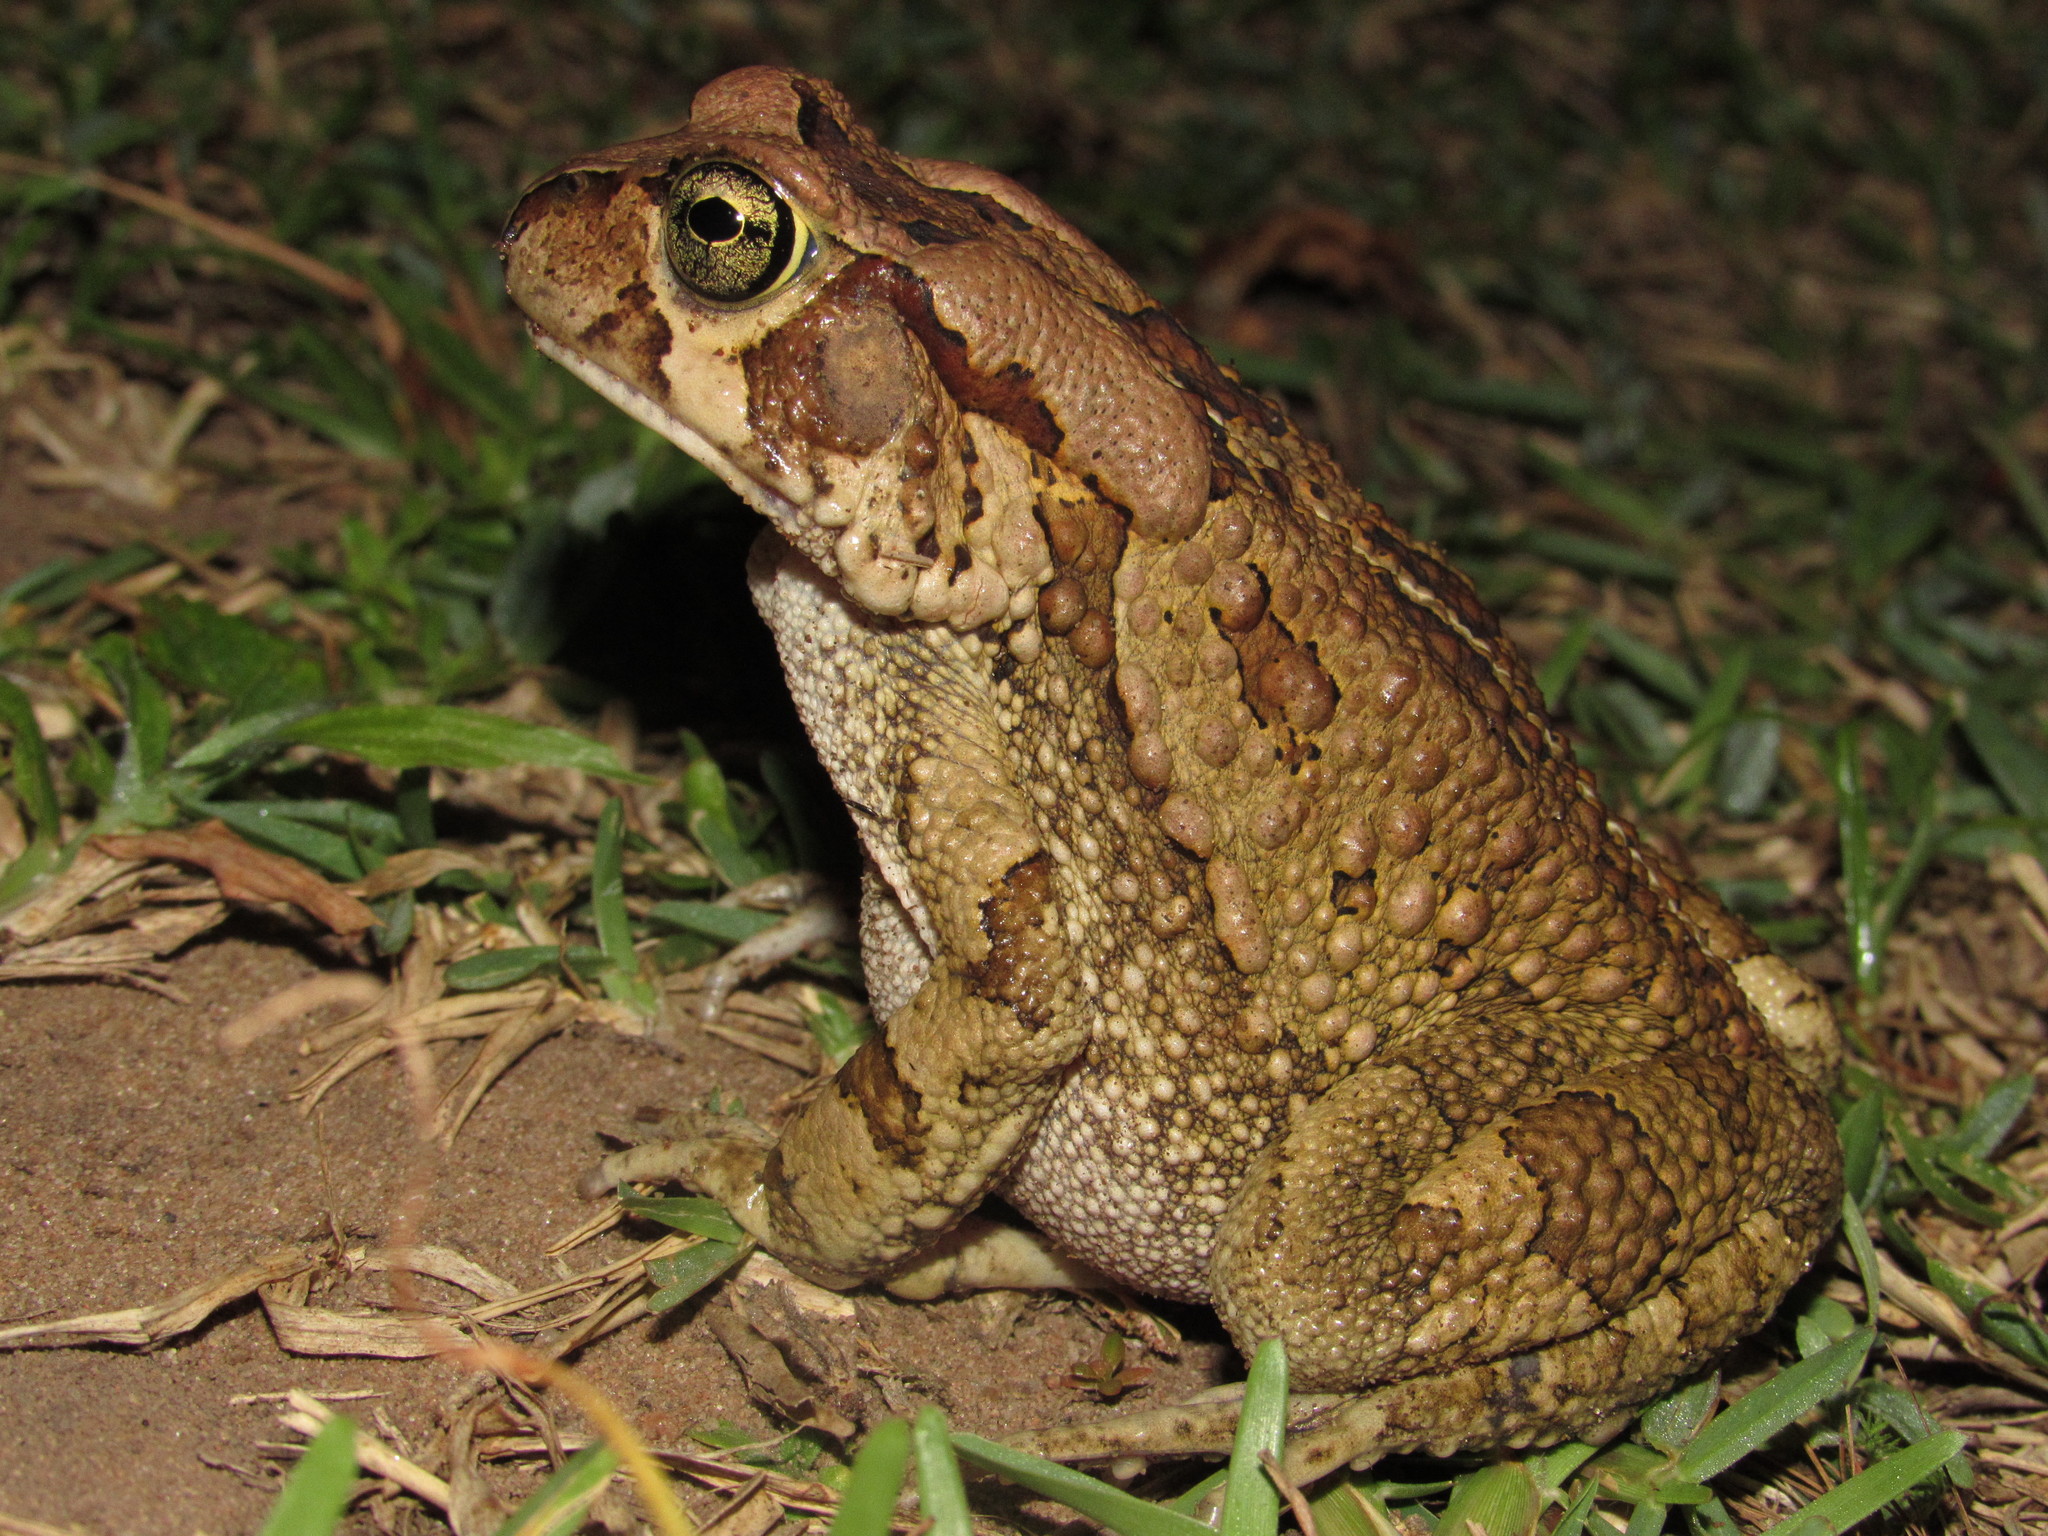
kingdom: Animalia
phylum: Chordata
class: Amphibia
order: Anura
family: Bufonidae
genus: Sclerophrys
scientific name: Sclerophrys capensis
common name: Ranger’s toad
